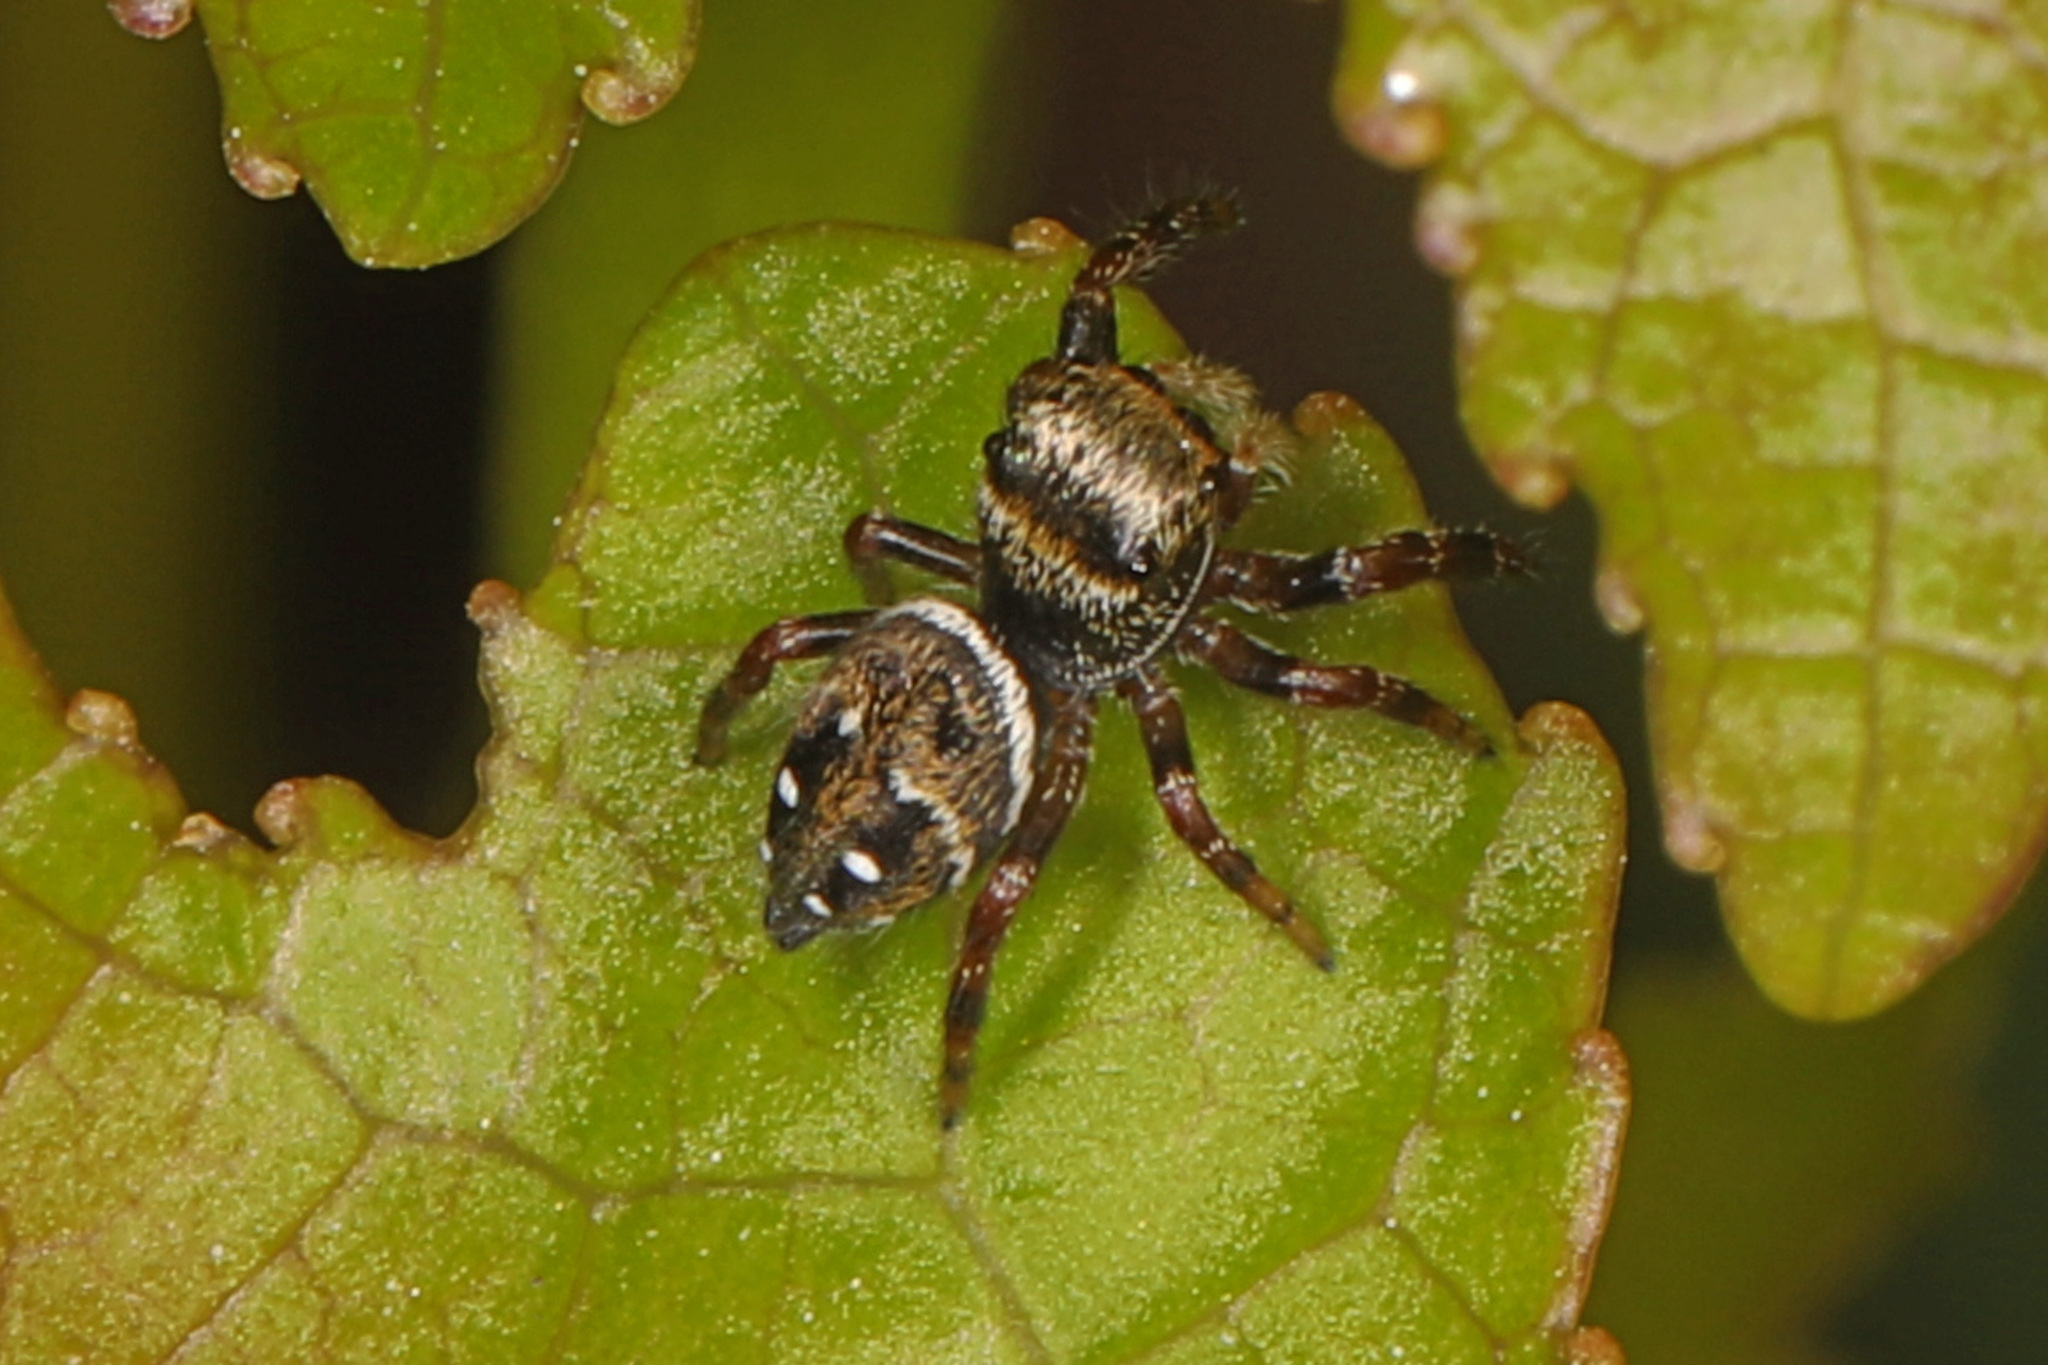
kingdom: Animalia
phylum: Arthropoda
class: Arachnida
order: Araneae
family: Salticidae
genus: Phidippus
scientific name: Phidippus clarus
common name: Brilliant jumping spider
